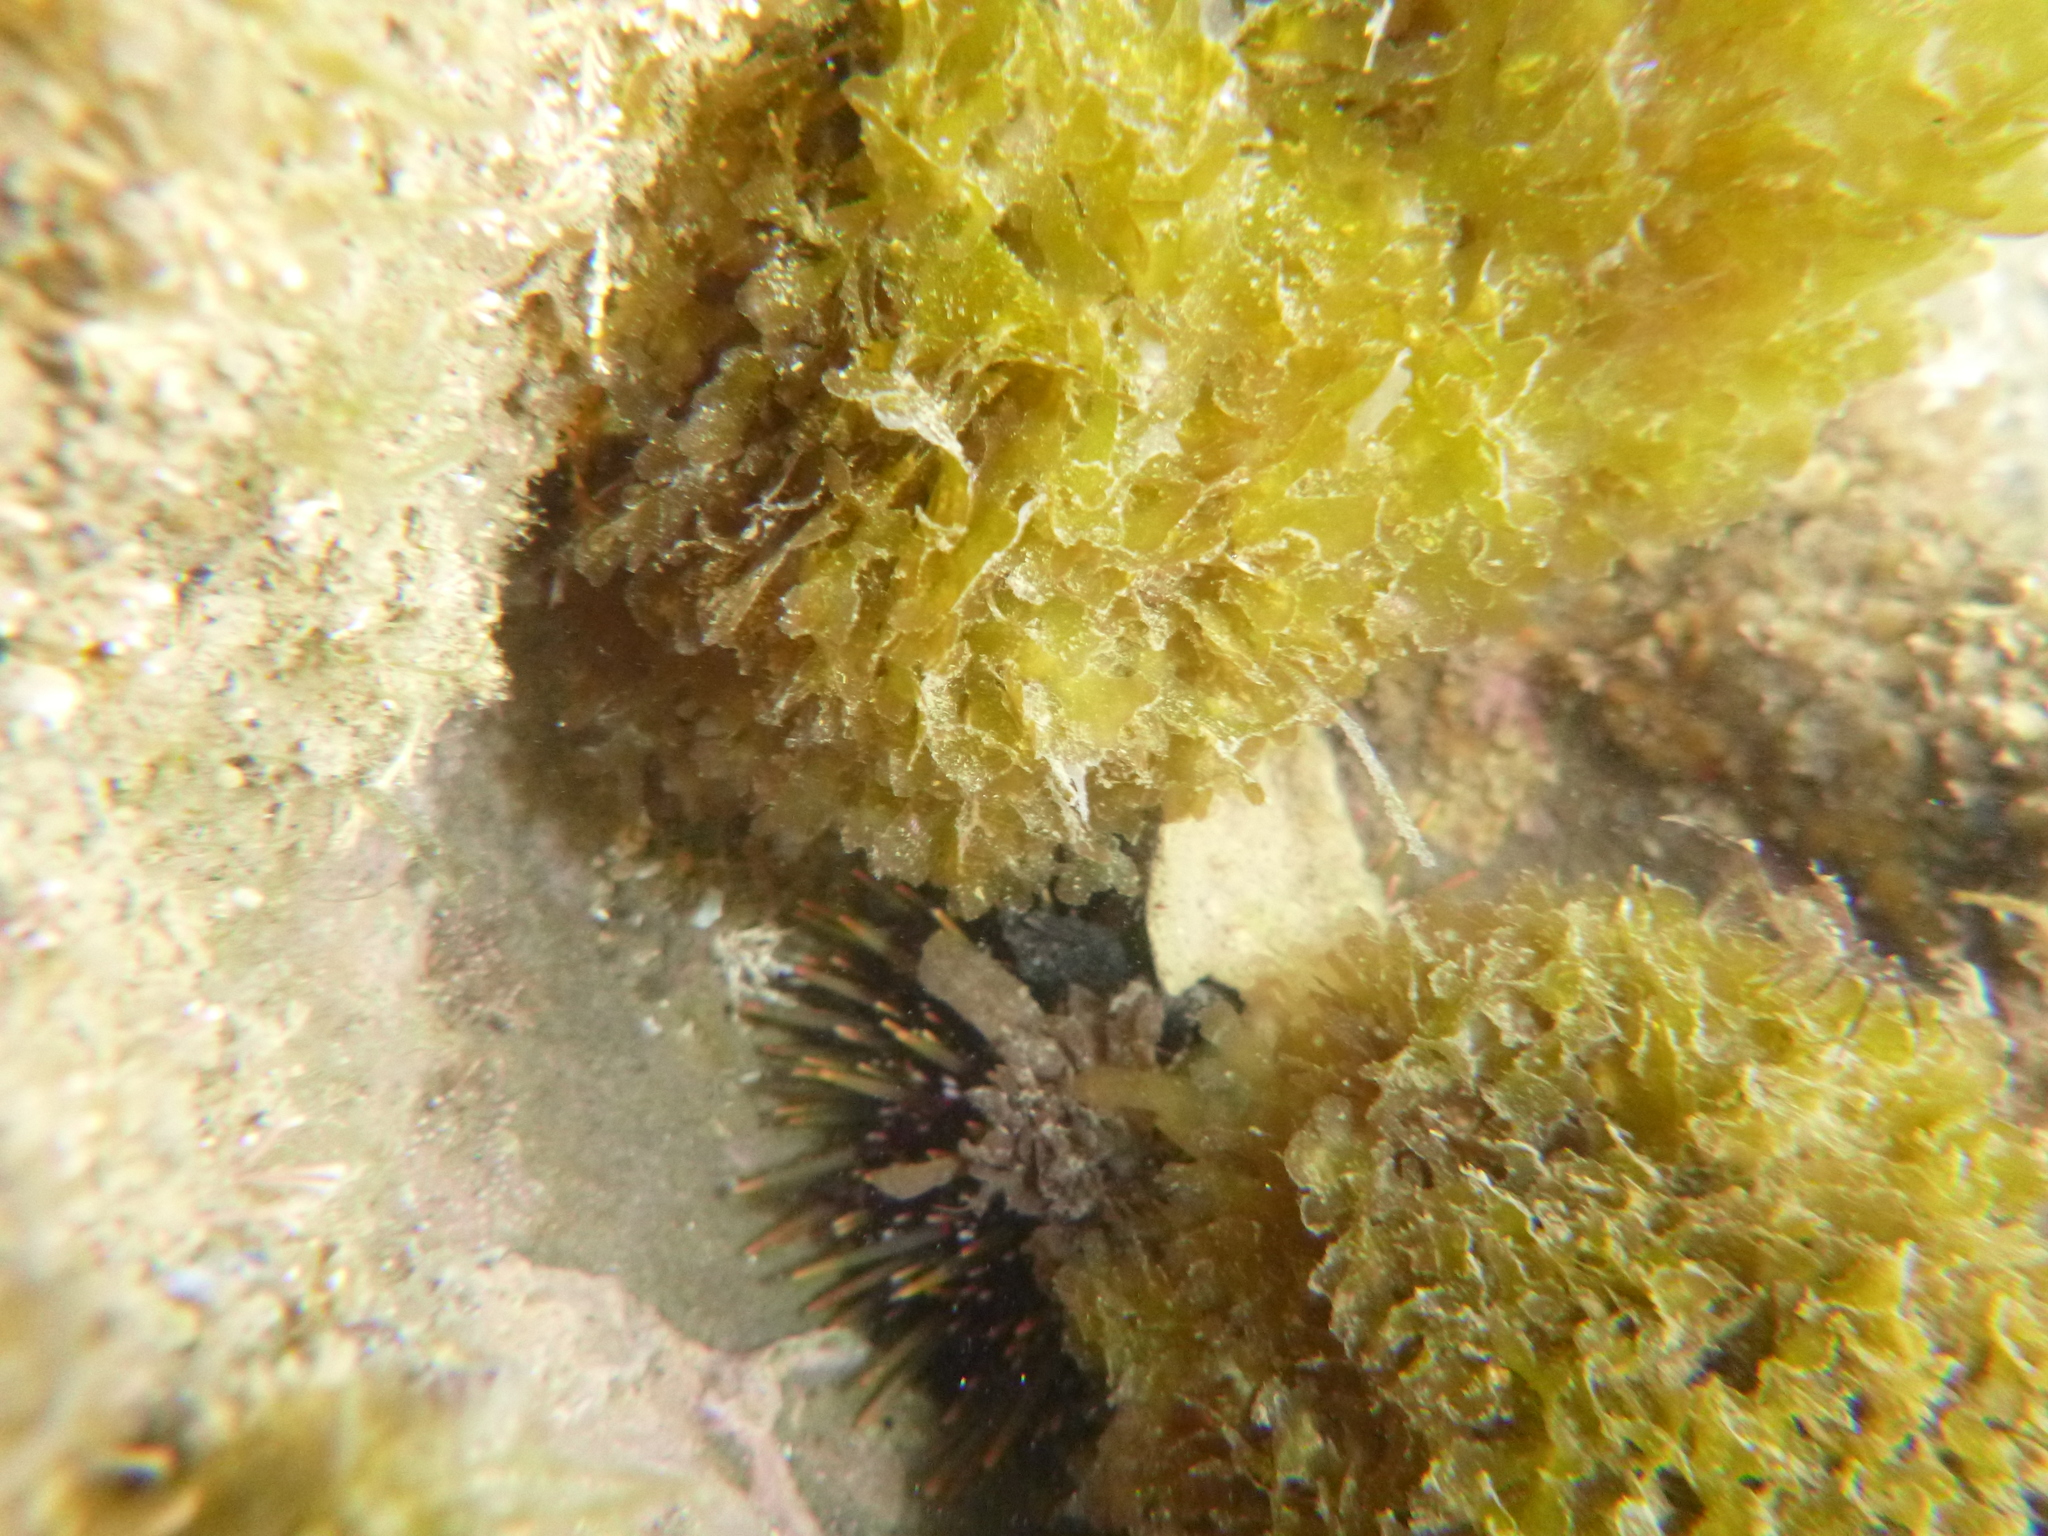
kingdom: Animalia
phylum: Echinodermata
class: Echinoidea
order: Camarodonta
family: Echinometridae
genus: Evechinus
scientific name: Evechinus chloroticus
